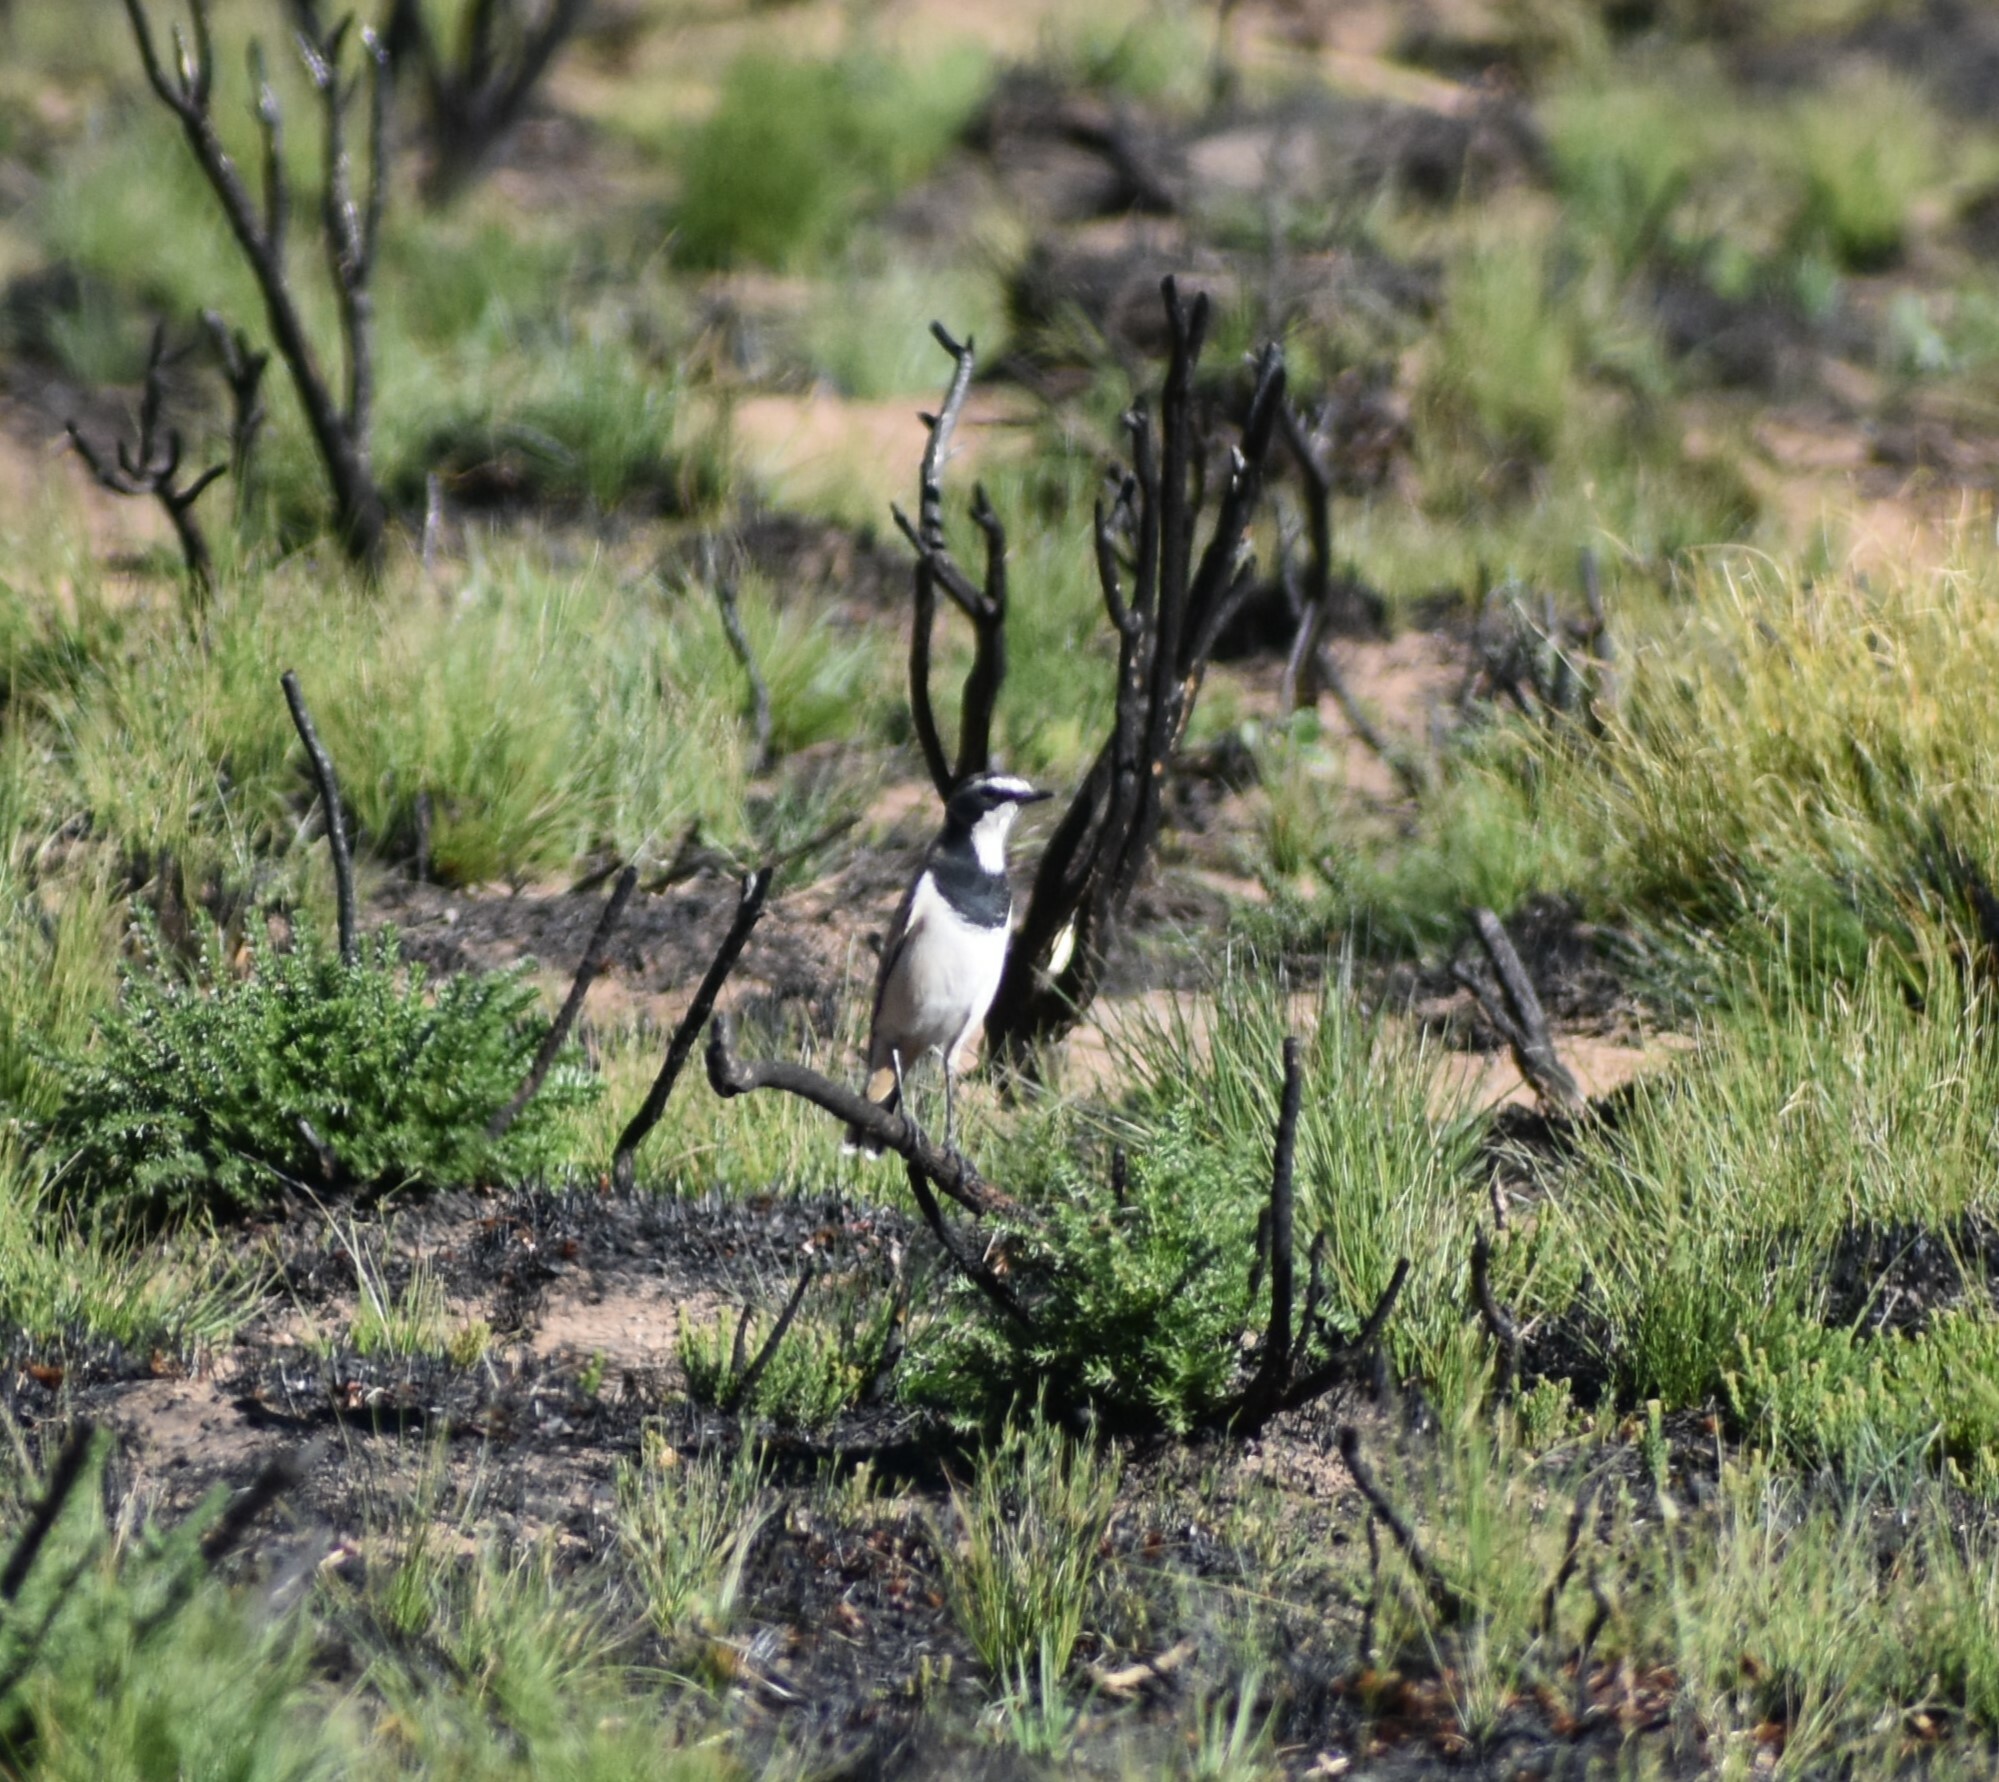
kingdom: Animalia
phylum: Chordata
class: Aves
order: Passeriformes
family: Muscicapidae
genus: Oenanthe
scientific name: Oenanthe pileata
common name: Capped wheatear
